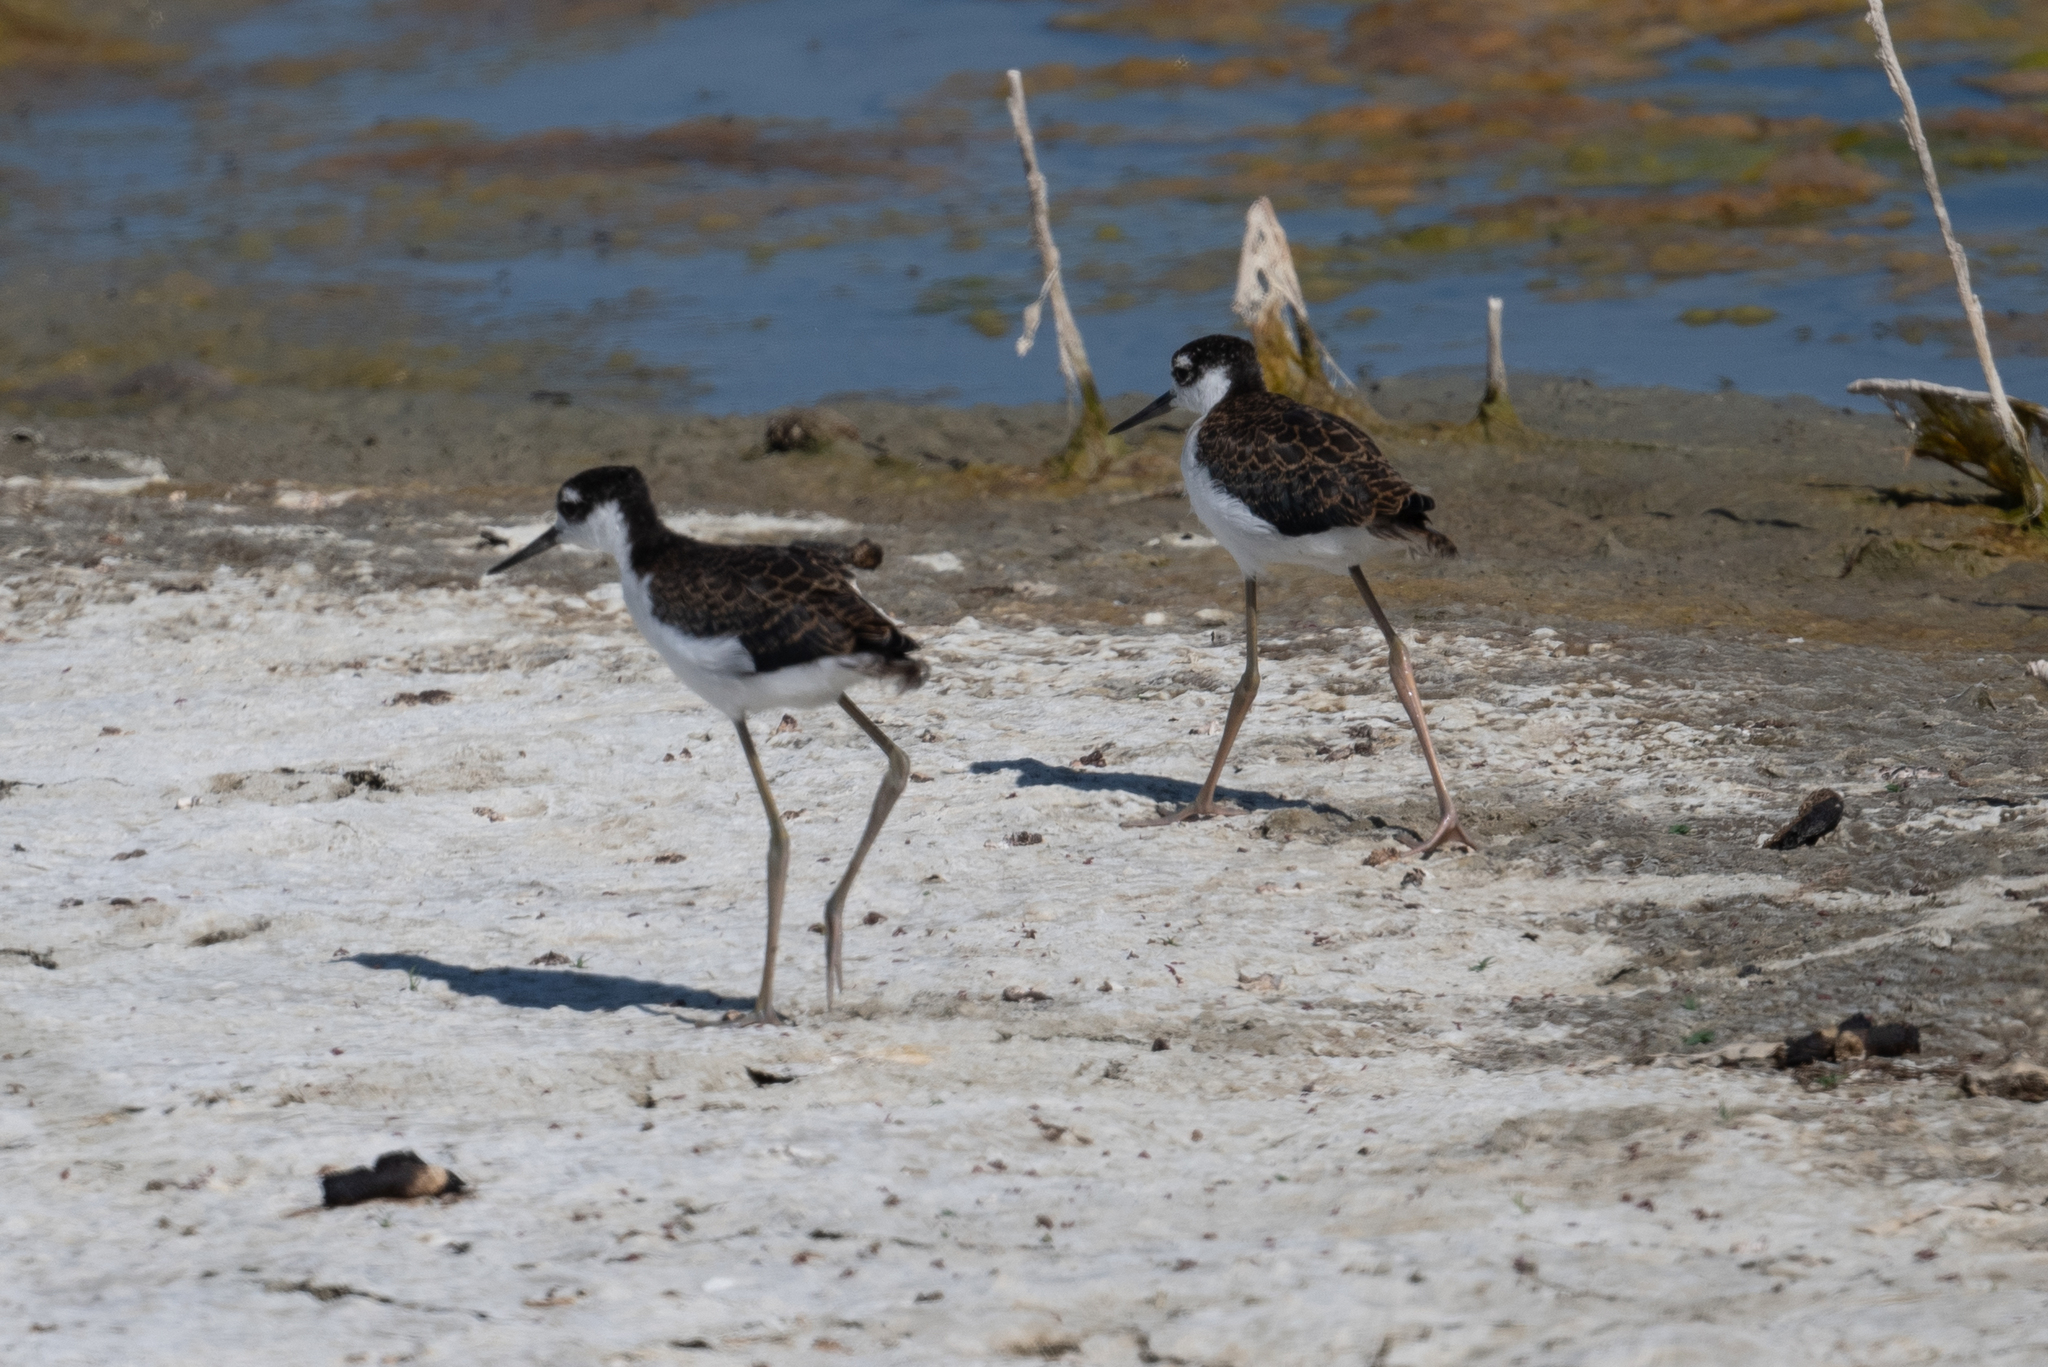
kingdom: Animalia
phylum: Chordata
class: Aves
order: Charadriiformes
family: Recurvirostridae
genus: Himantopus
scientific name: Himantopus mexicanus
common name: Black-necked stilt
